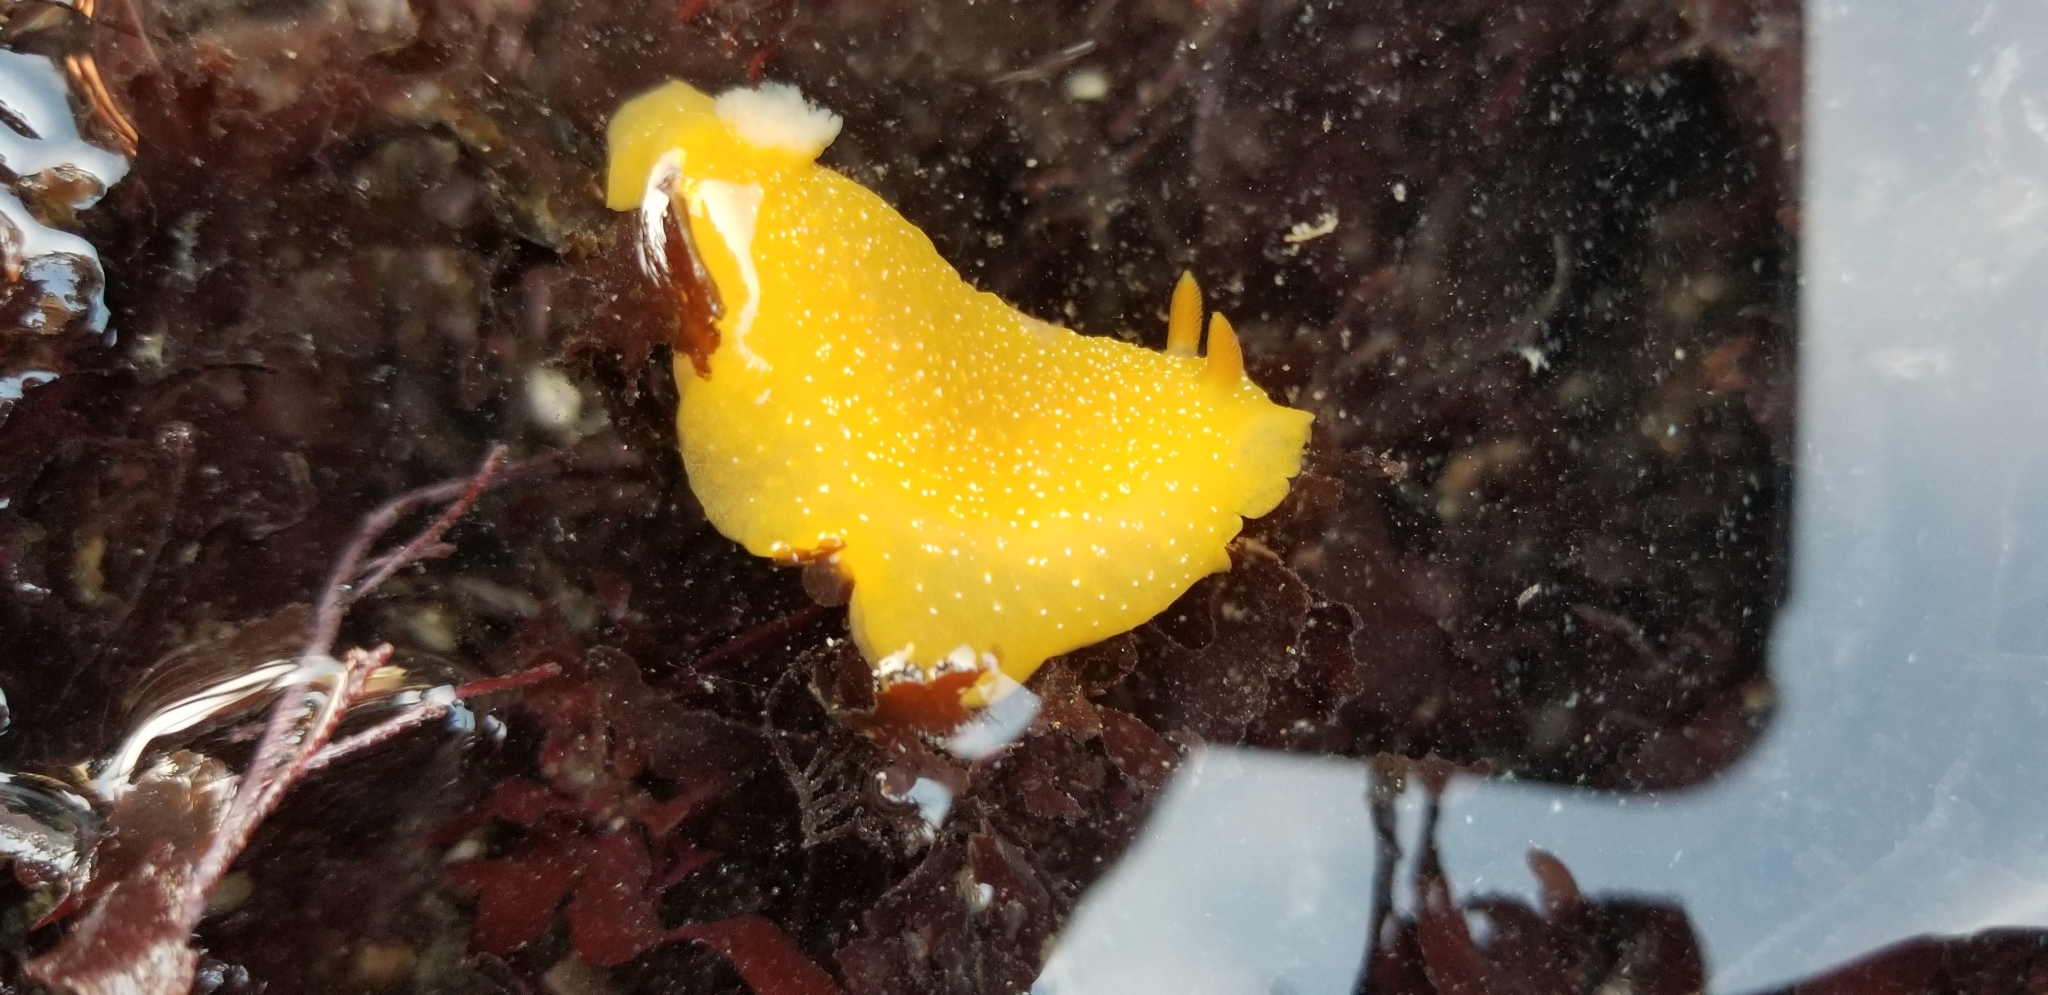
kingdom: Animalia
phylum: Mollusca
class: Gastropoda
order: Nudibranchia
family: Dendrodorididae
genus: Doriopsilla
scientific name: Doriopsilla fulva
